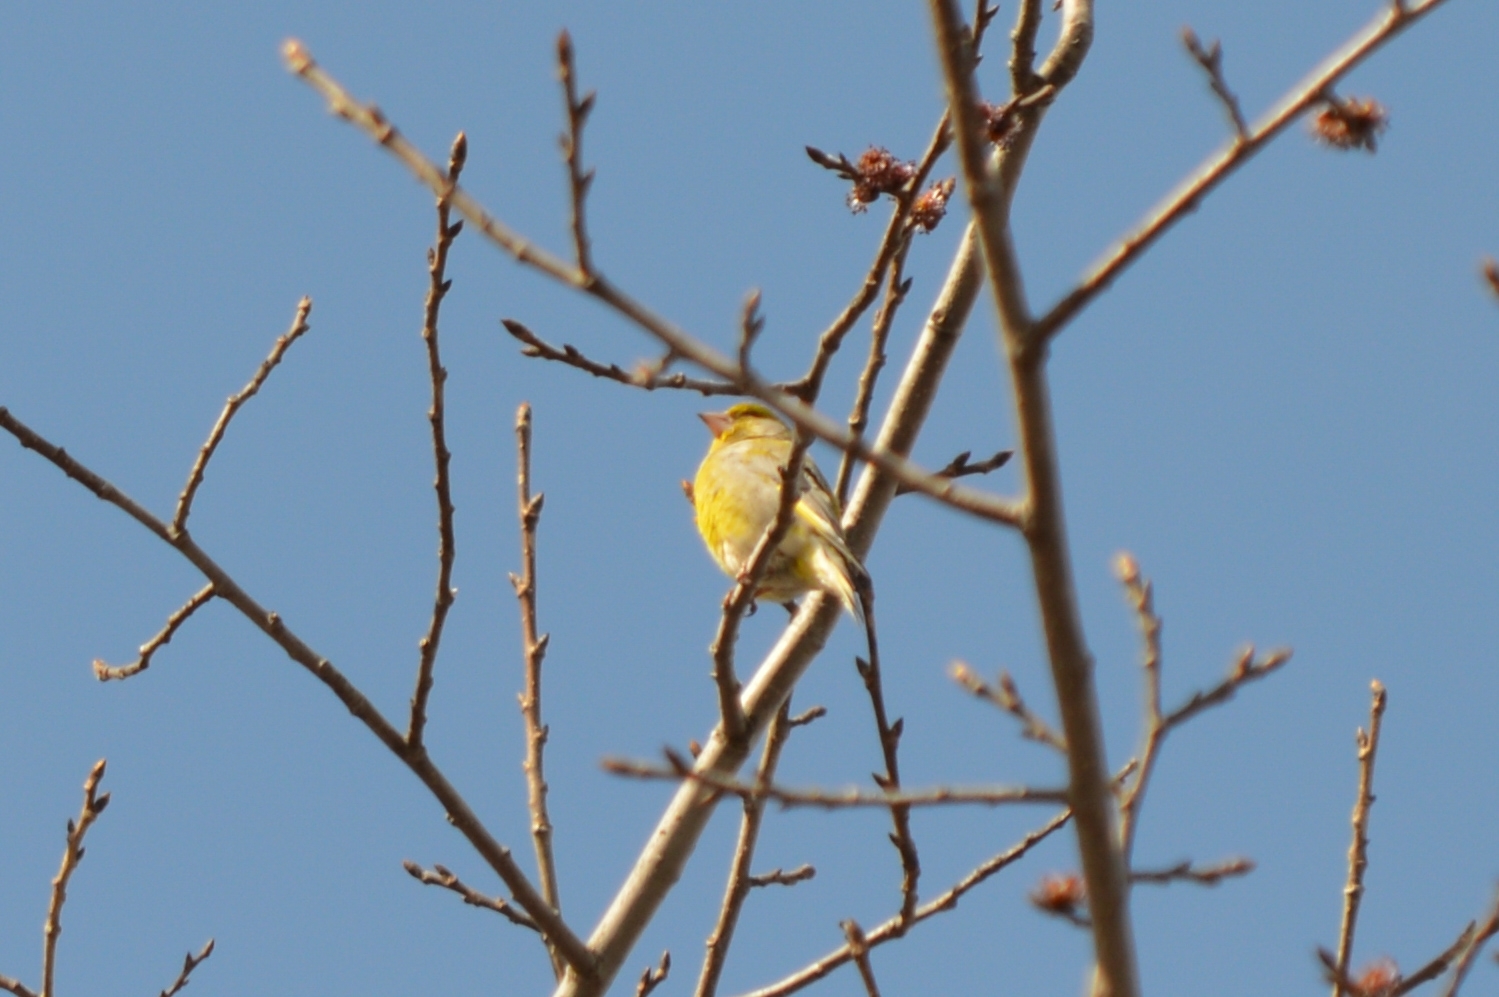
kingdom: Plantae
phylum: Tracheophyta
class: Liliopsida
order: Poales
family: Poaceae
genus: Chloris
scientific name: Chloris chloris
